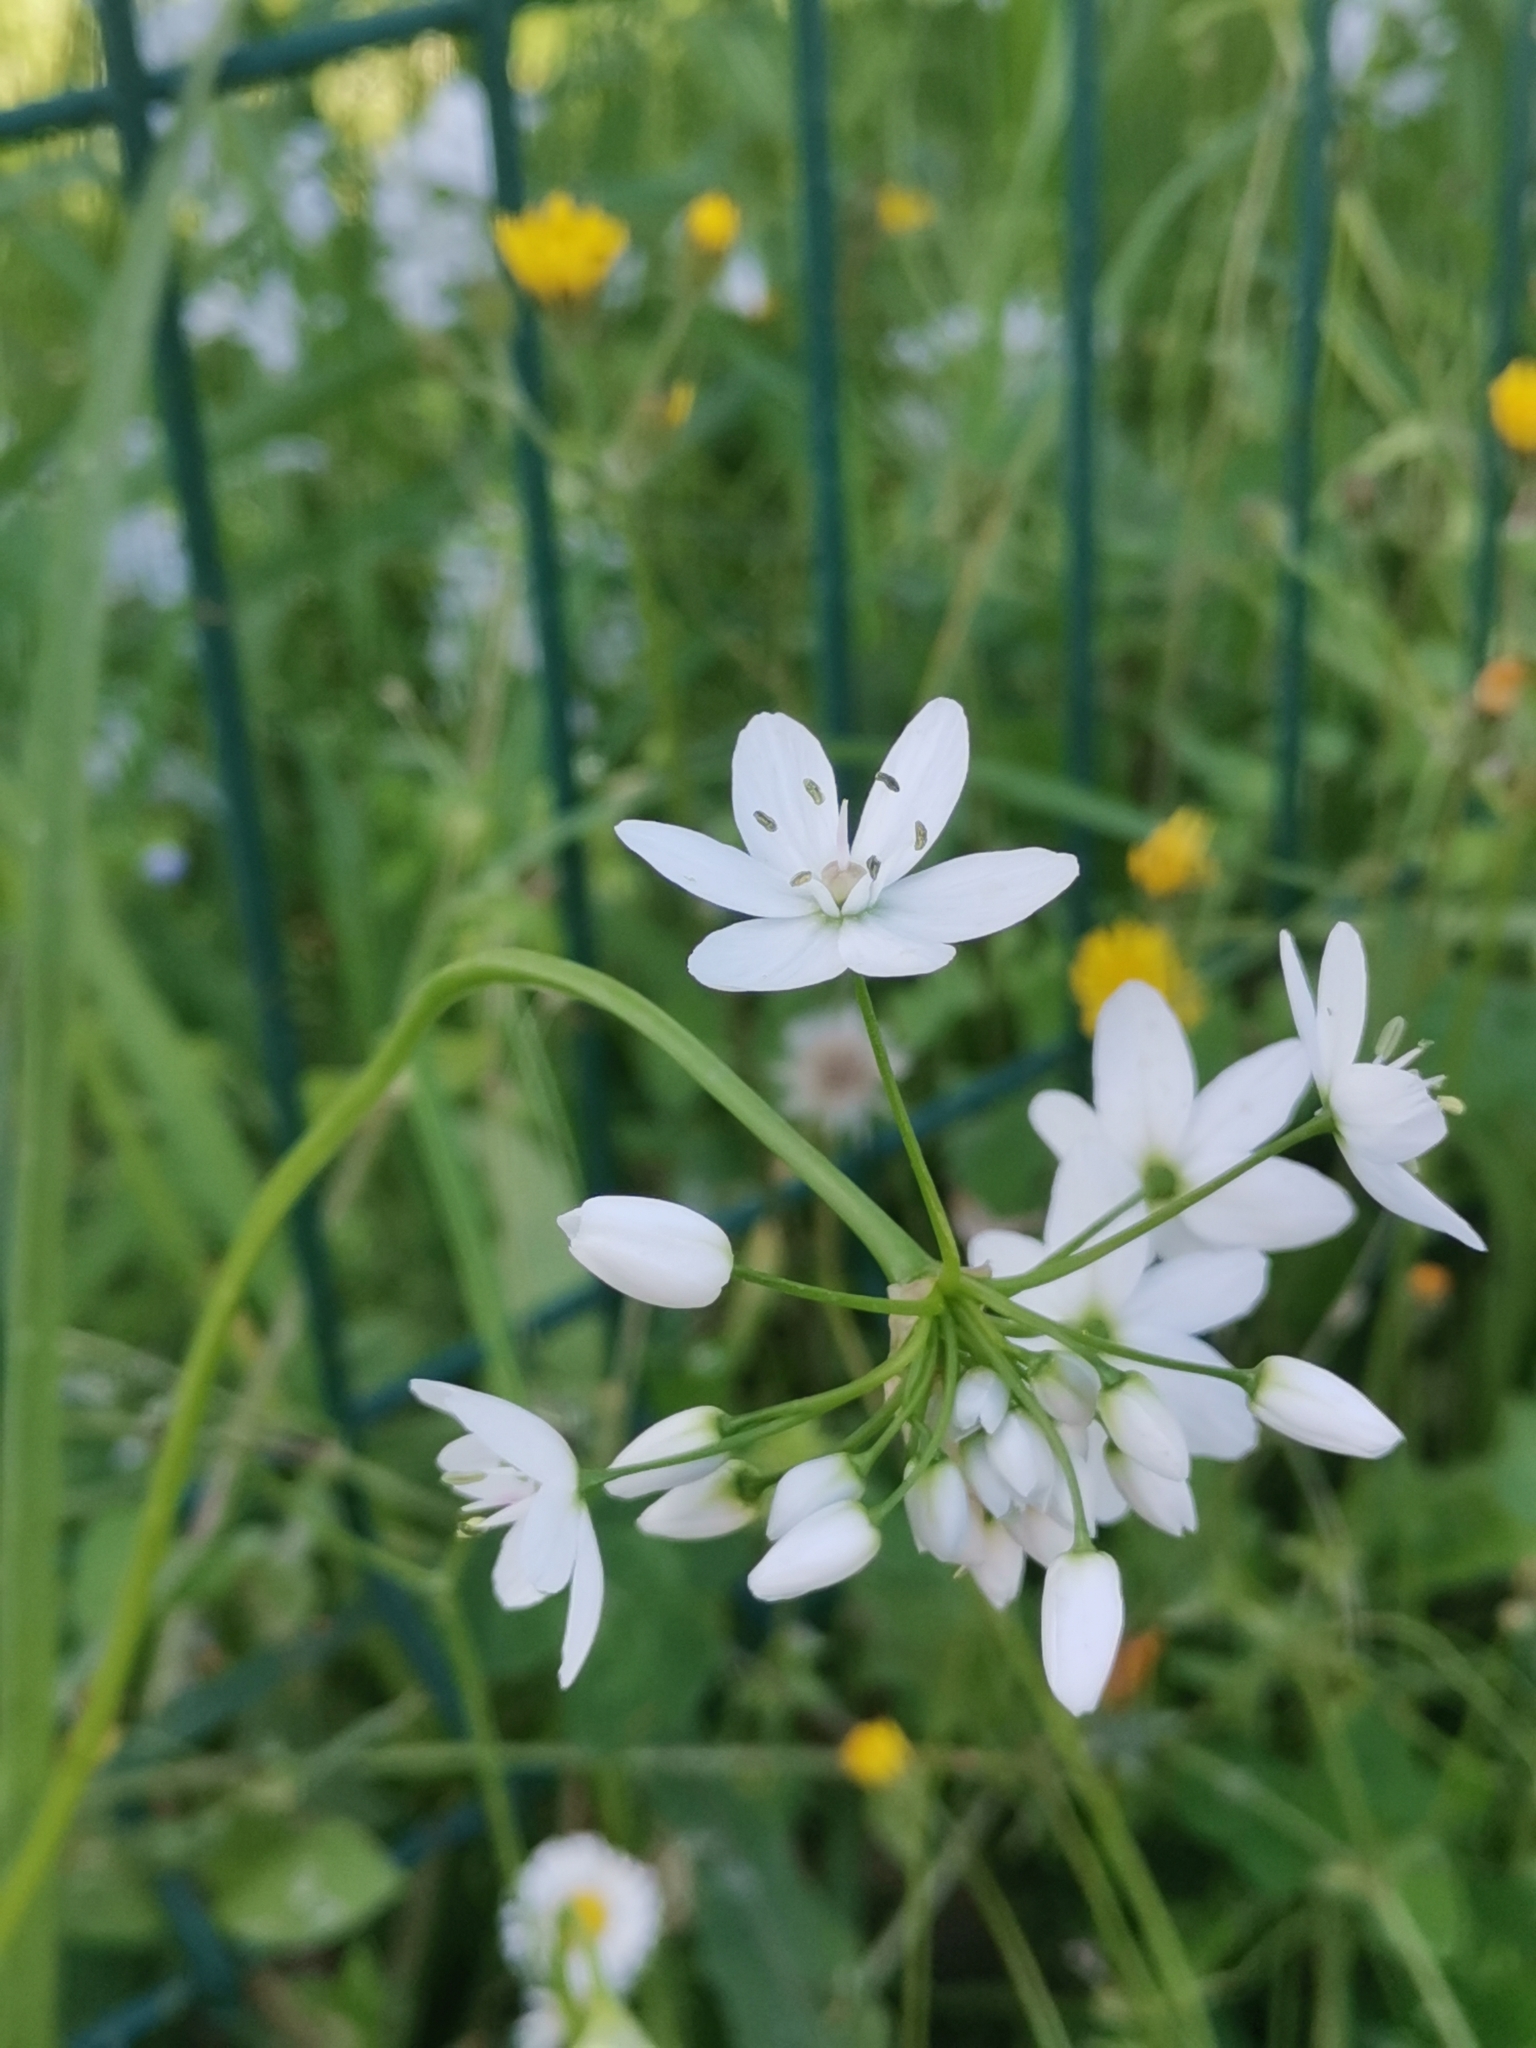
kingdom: Plantae
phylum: Tracheophyta
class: Liliopsida
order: Asparagales
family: Amaryllidaceae
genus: Allium
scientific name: Allium neapolitanum
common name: Neapolitan garlic
